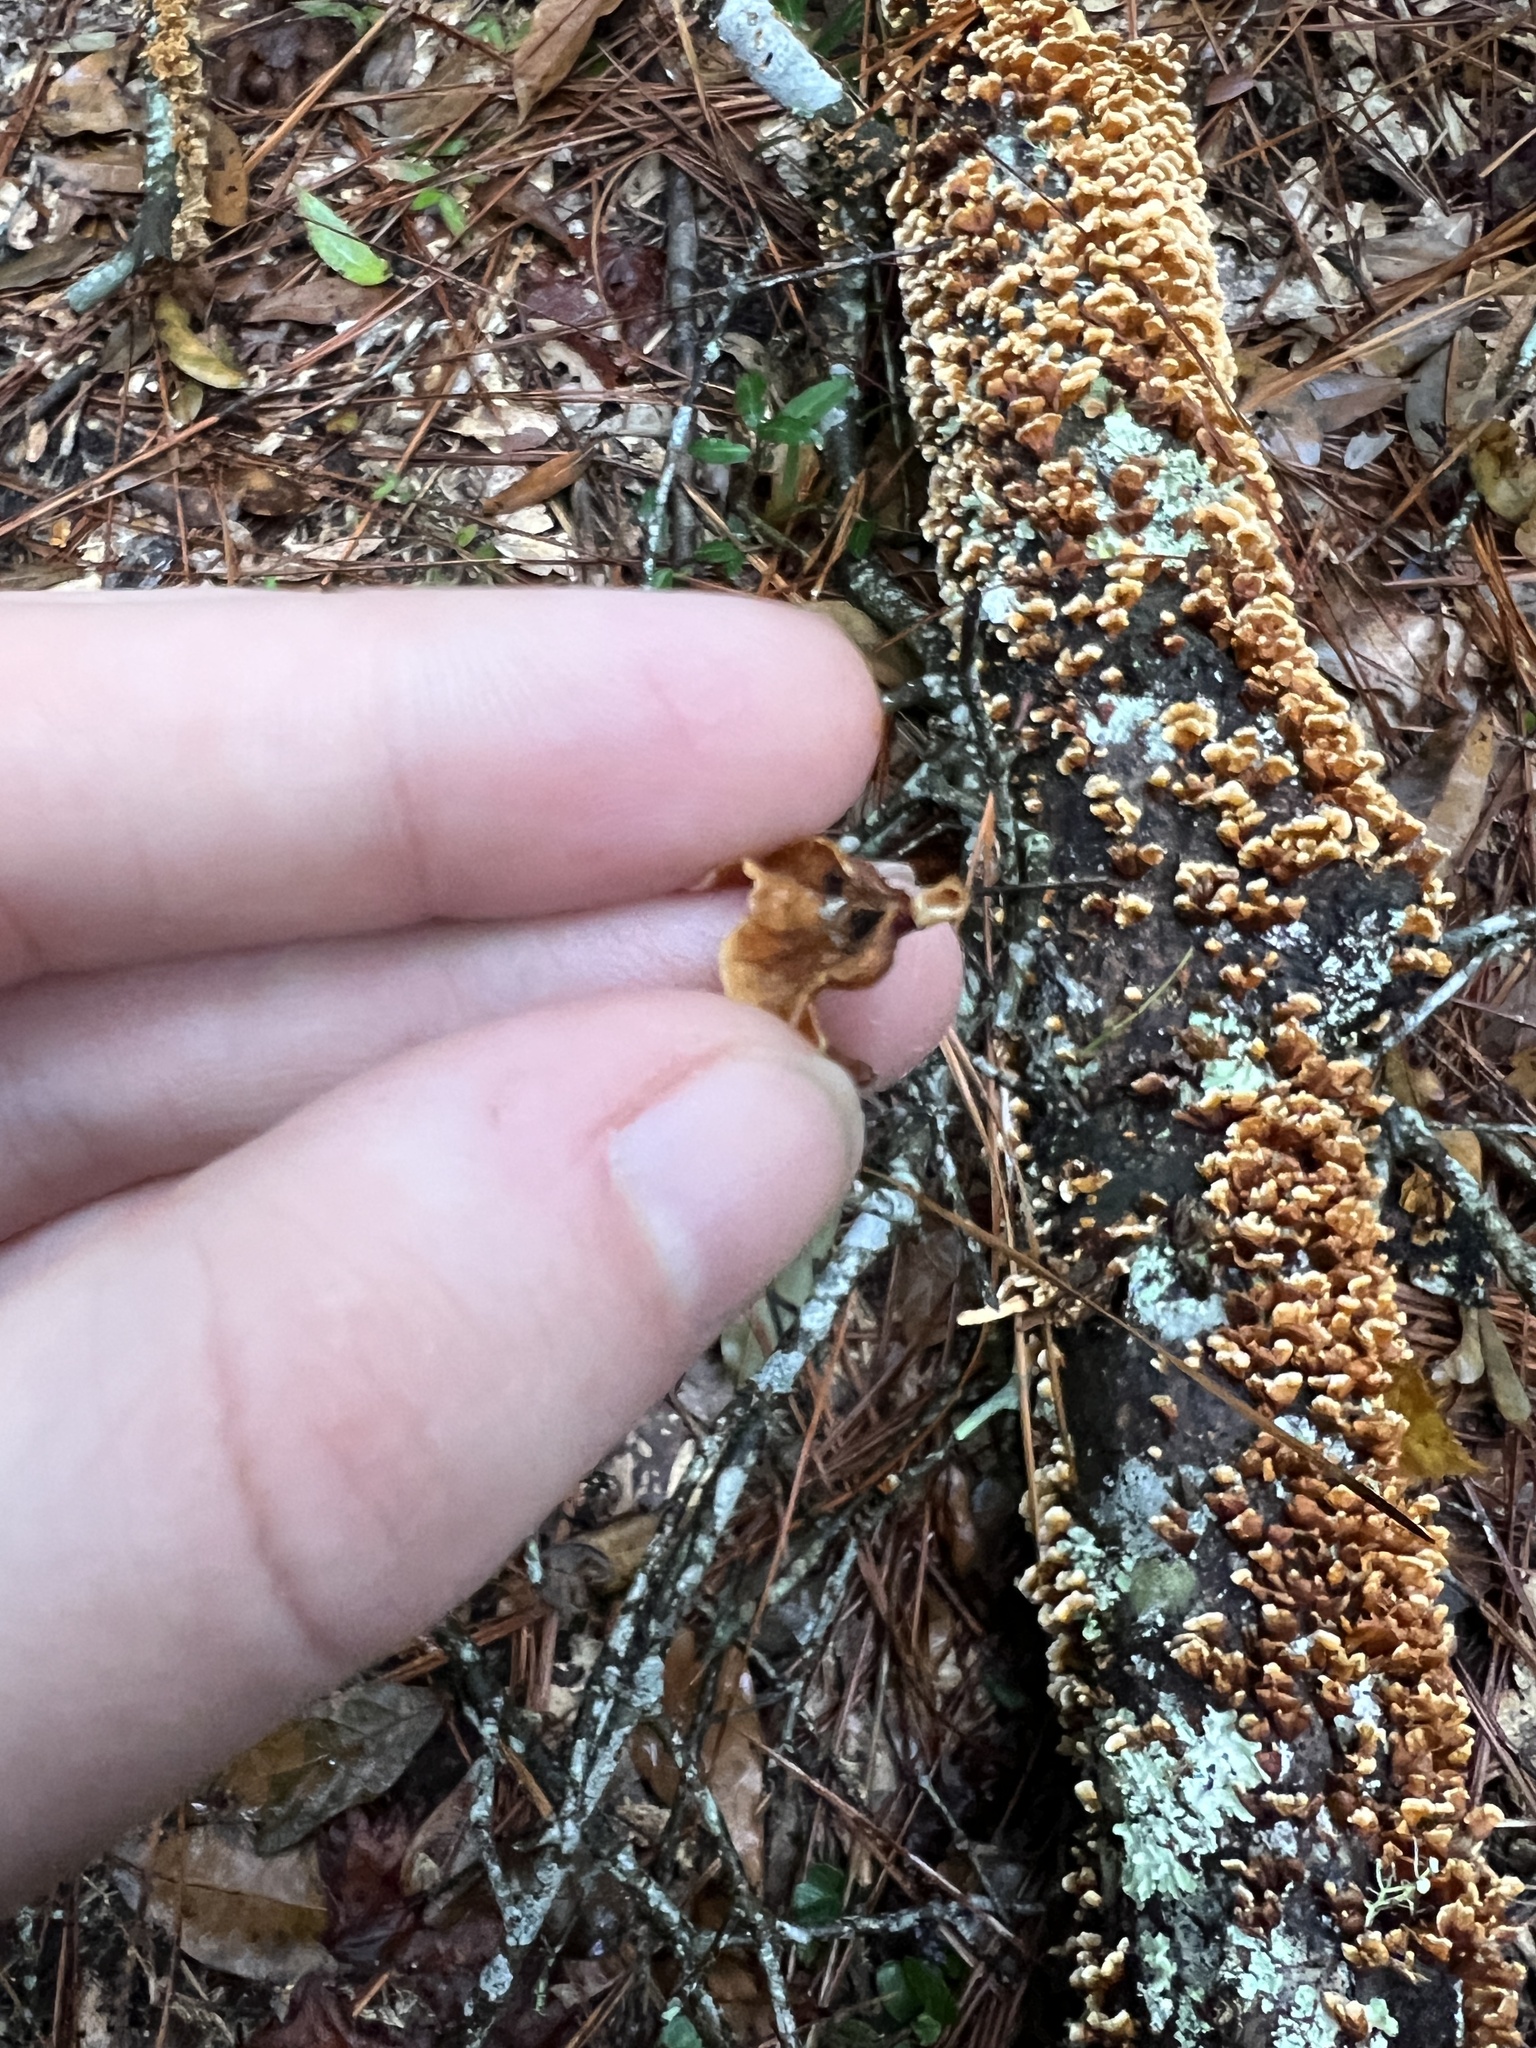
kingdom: Fungi
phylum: Basidiomycota
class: Agaricomycetes
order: Russulales
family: Stereaceae
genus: Stereum
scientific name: Stereum complicatum
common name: Crowded parchment
